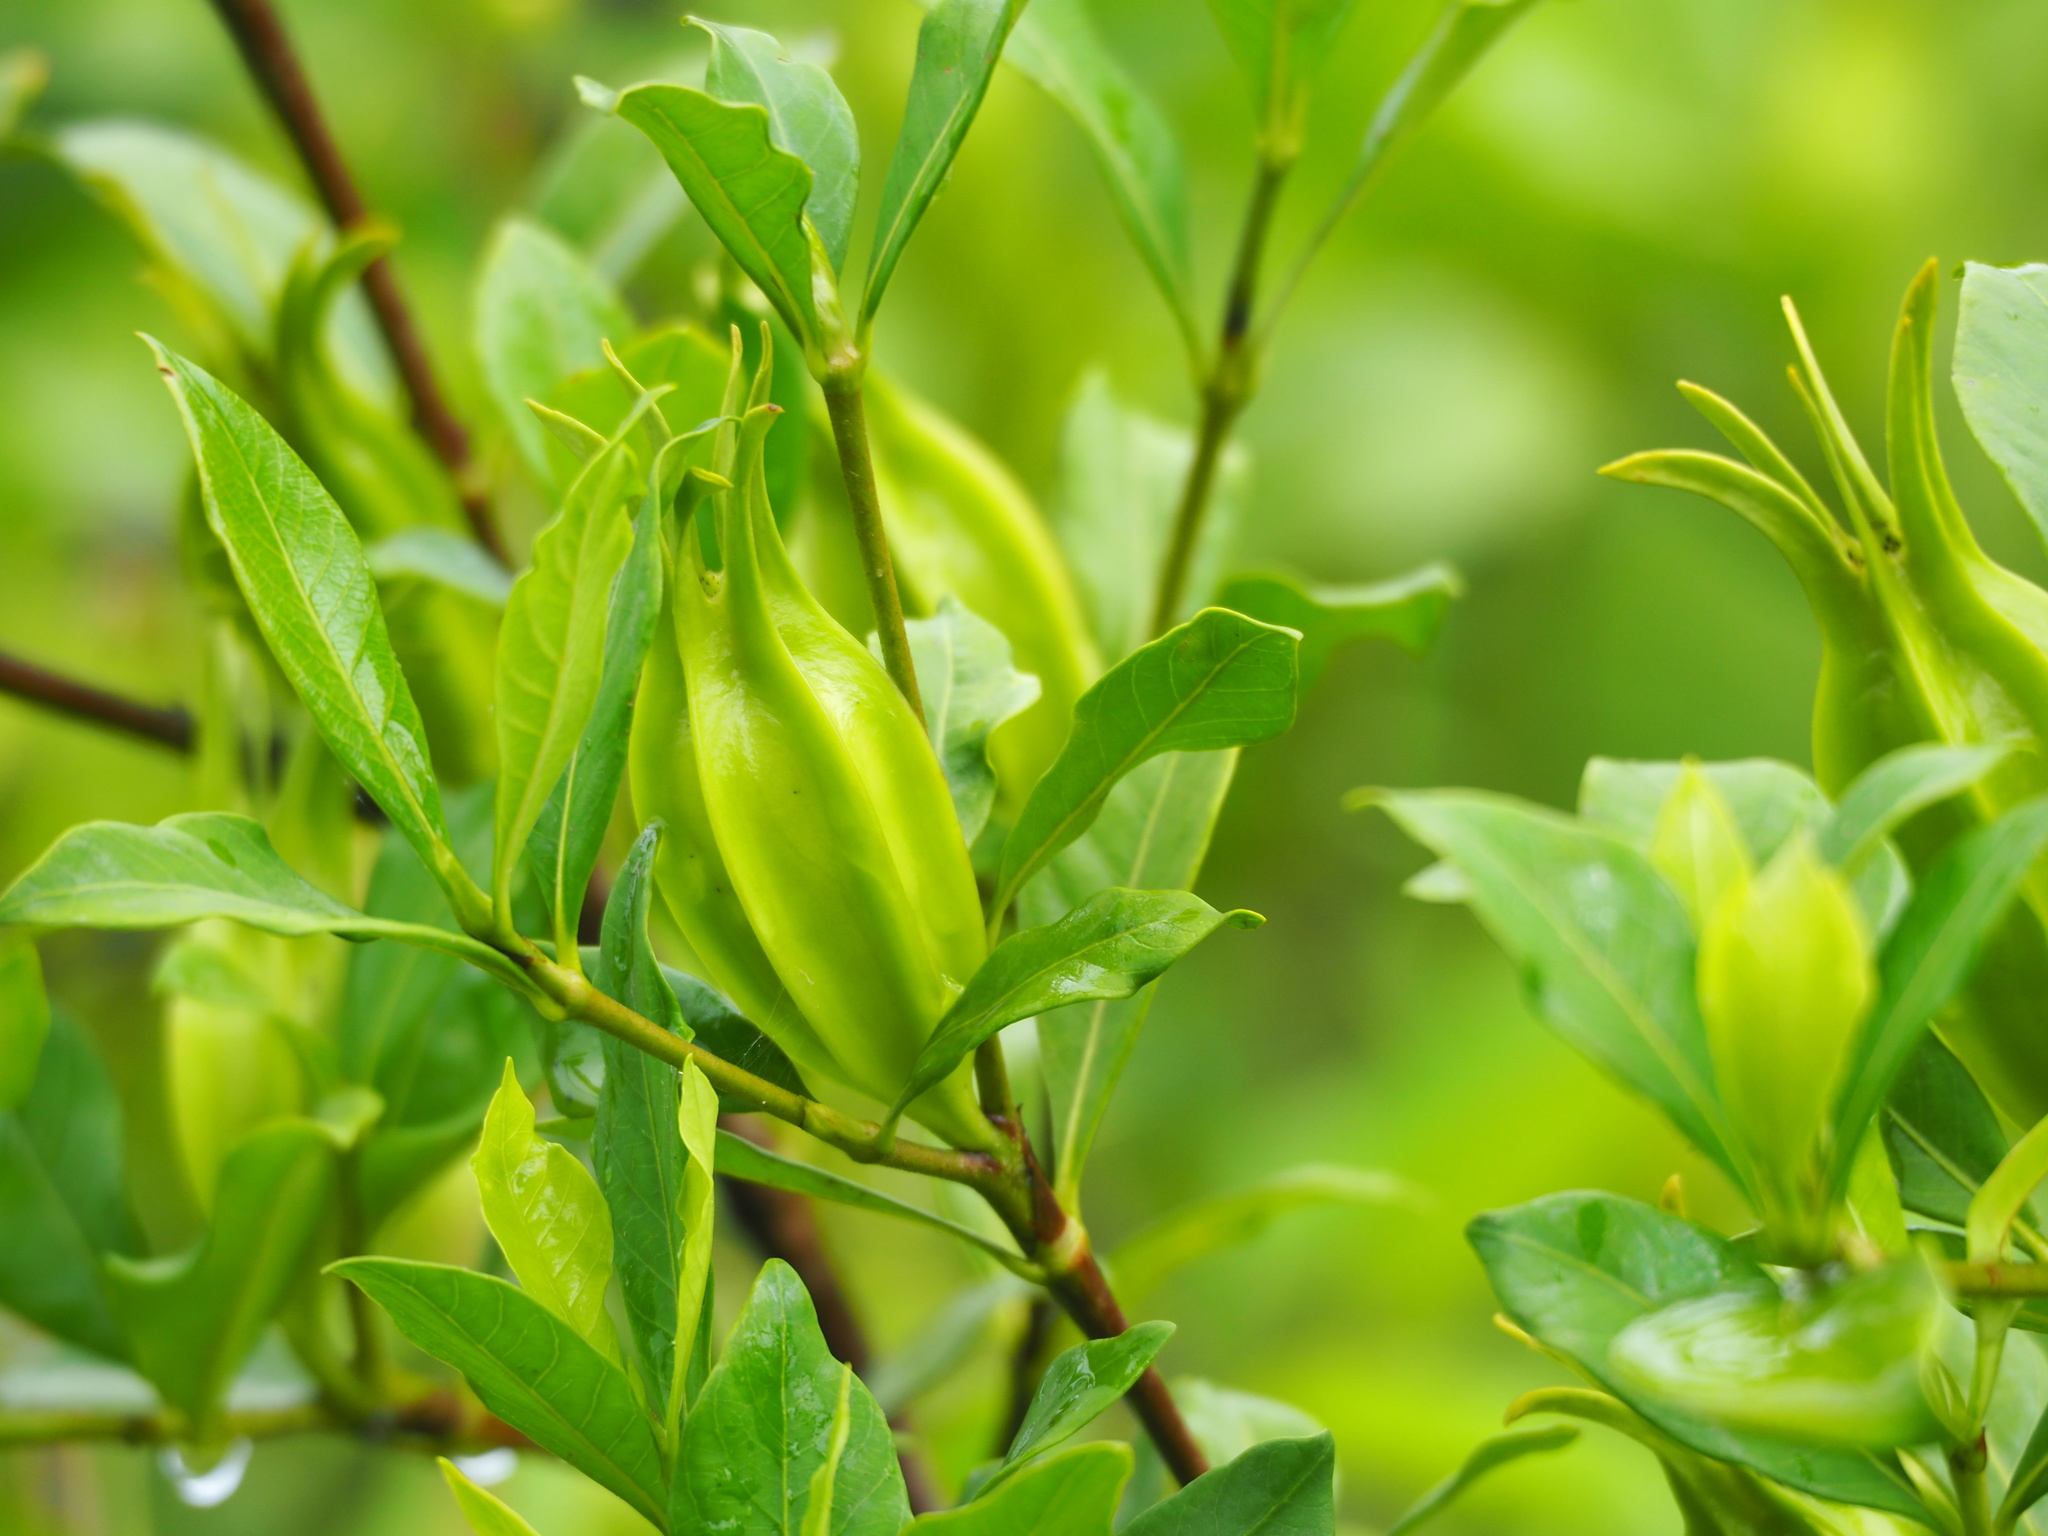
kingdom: Plantae
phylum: Tracheophyta
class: Magnoliopsida
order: Gentianales
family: Rubiaceae
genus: Gardenia
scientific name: Gardenia jasminoides
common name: Cape-jasmine
